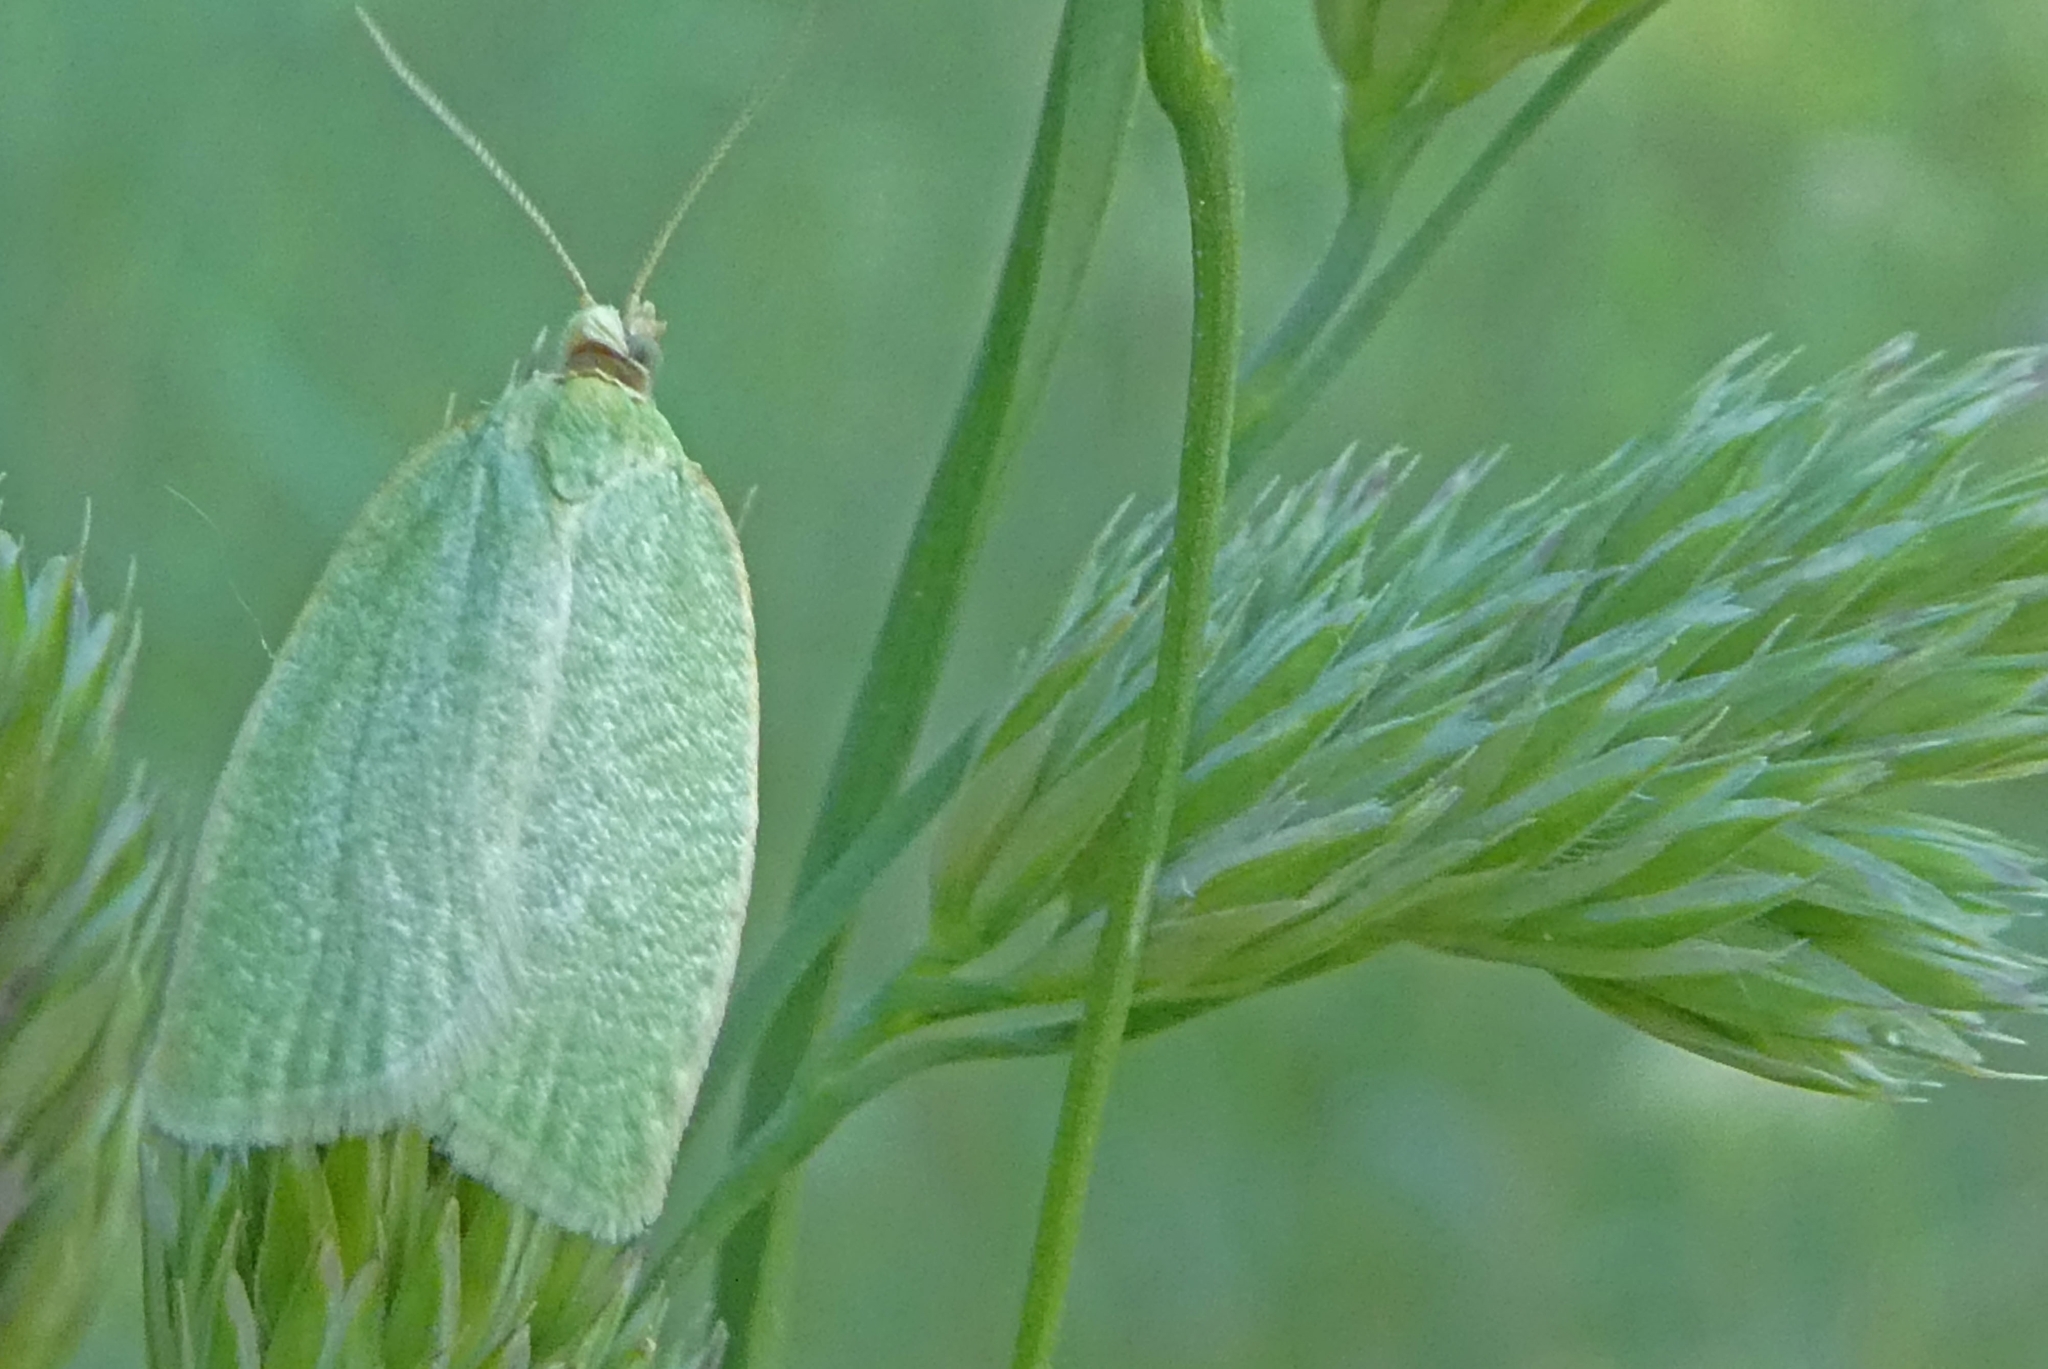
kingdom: Animalia
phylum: Arthropoda
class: Insecta
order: Lepidoptera
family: Tortricidae
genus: Tortrix
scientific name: Tortrix viridana
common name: Green oak tortrix
